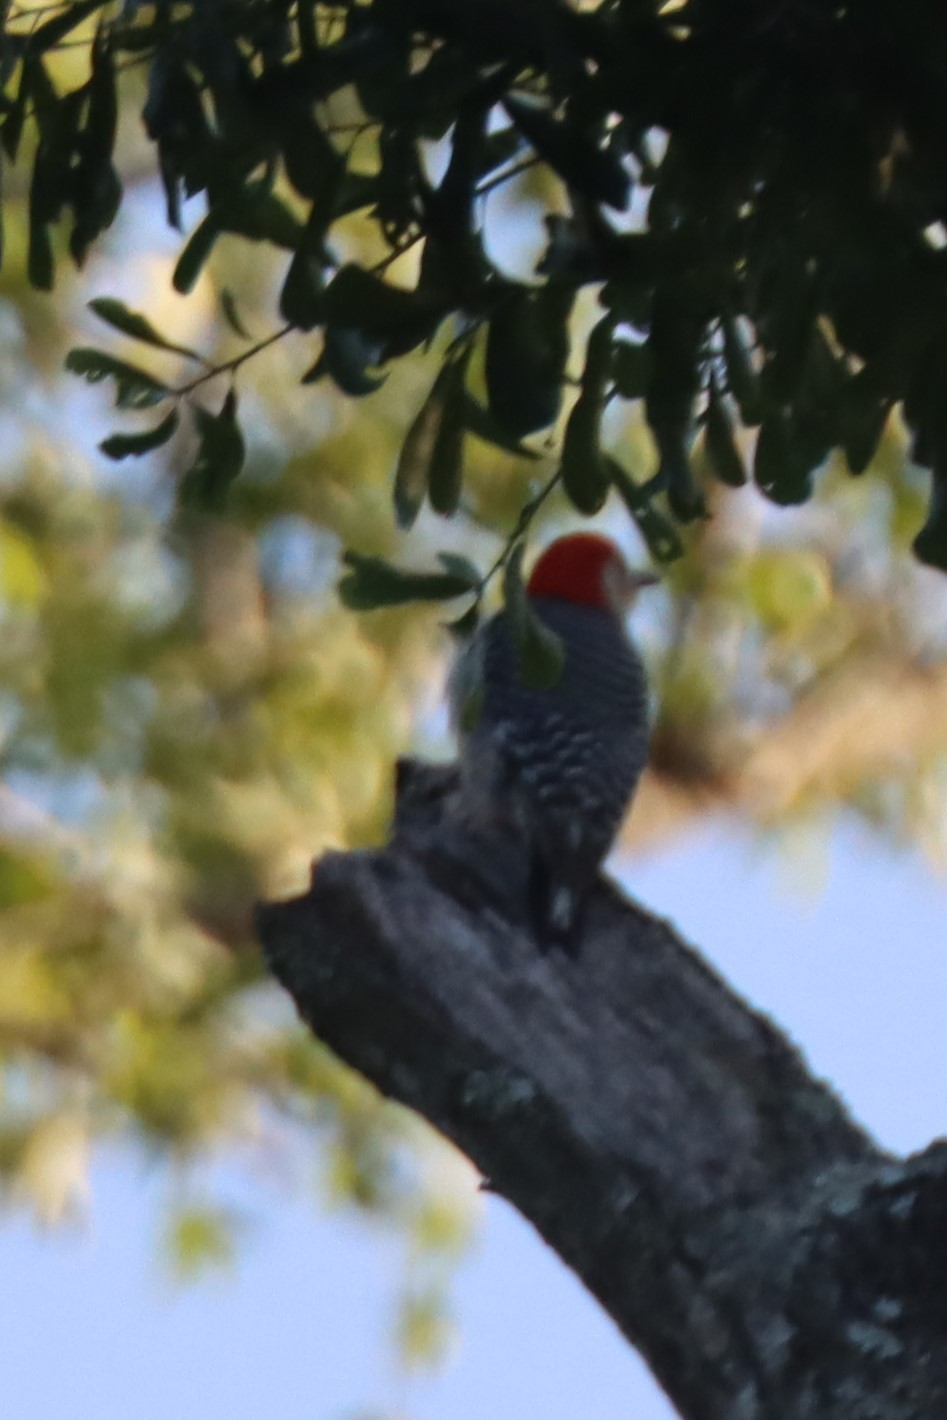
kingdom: Animalia
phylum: Chordata
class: Aves
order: Piciformes
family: Picidae
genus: Melanerpes
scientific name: Melanerpes carolinus
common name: Red-bellied woodpecker
